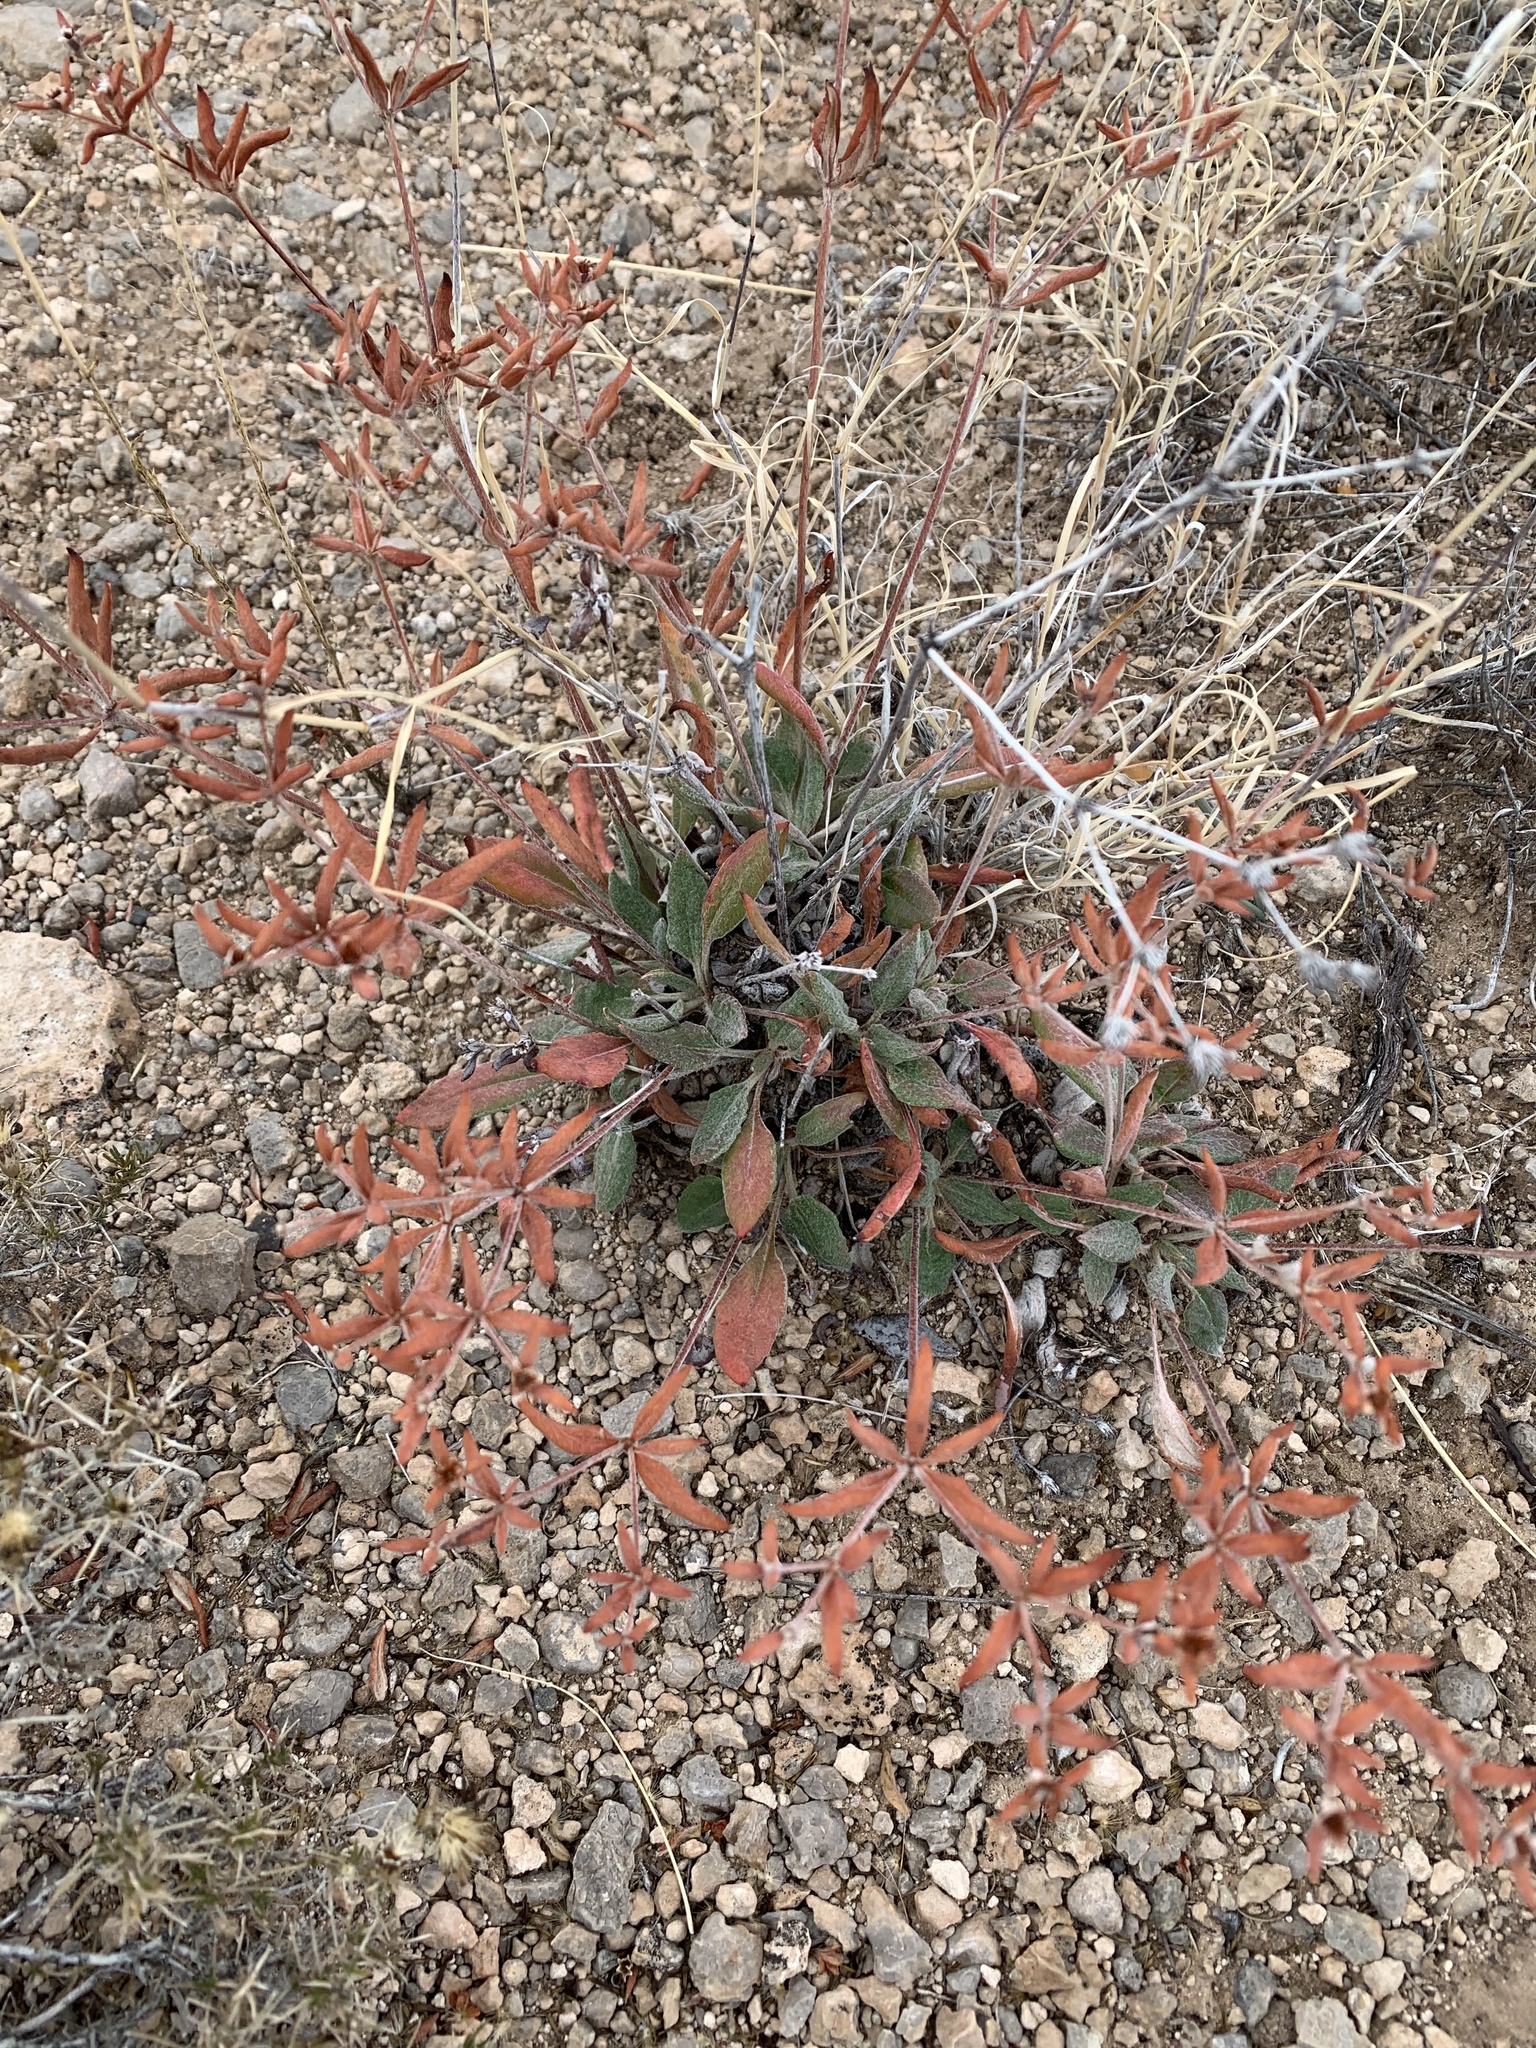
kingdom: Plantae
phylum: Tracheophyta
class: Magnoliopsida
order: Caryophyllales
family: Polygonaceae
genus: Eriogonum
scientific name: Eriogonum wootonii
